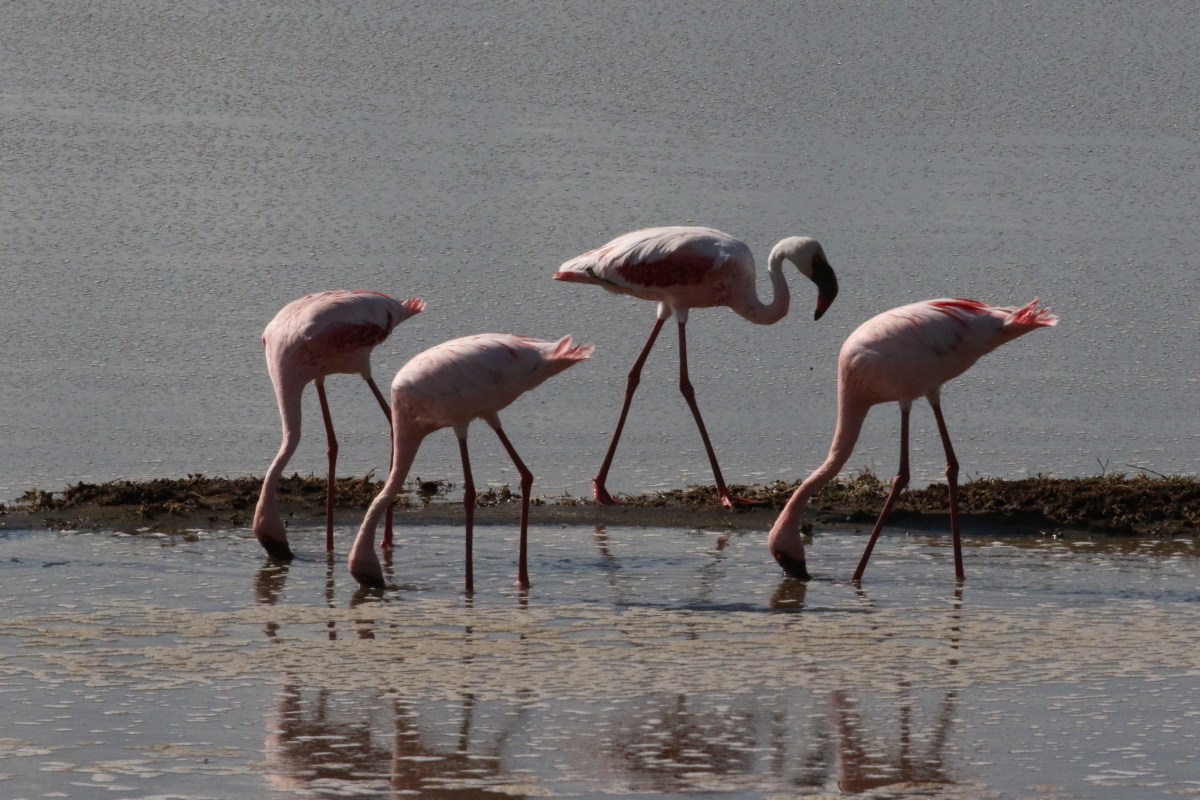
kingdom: Animalia
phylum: Chordata
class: Aves
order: Phoenicopteriformes
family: Phoenicopteridae
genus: Phoeniconaias
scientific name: Phoeniconaias minor
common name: Lesser flamingo
